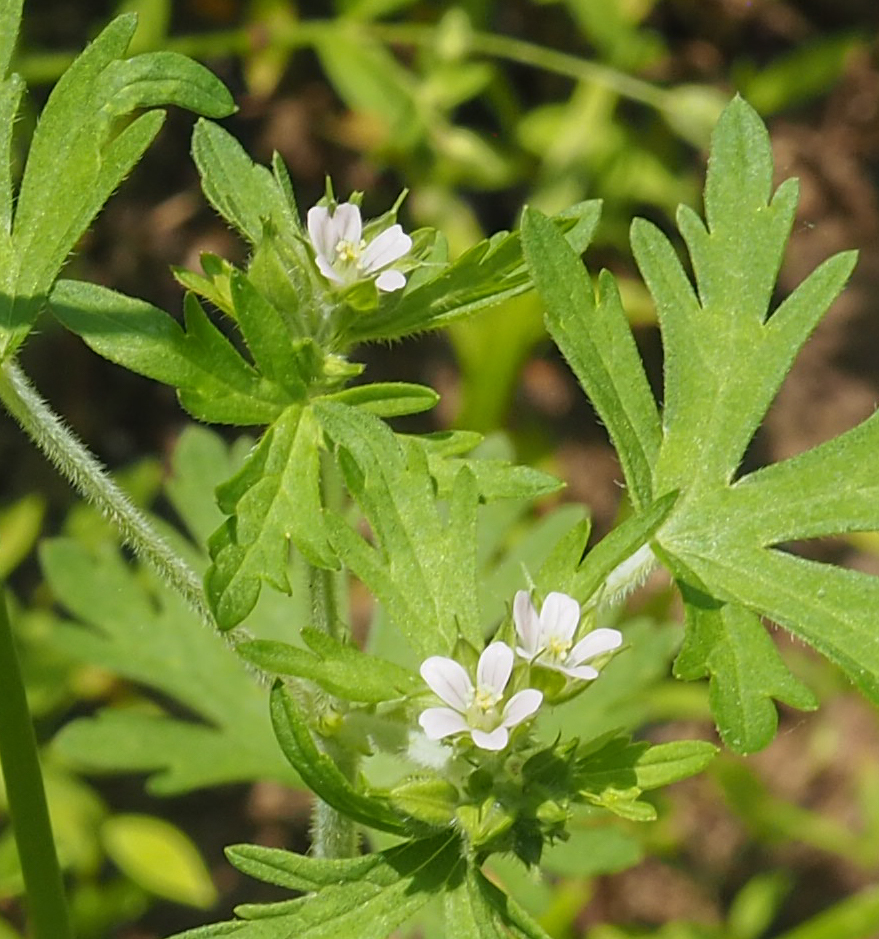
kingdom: Plantae
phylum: Tracheophyta
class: Magnoliopsida
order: Geraniales
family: Geraniaceae
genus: Geranium
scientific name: Geranium carolinianum
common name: Carolina crane's-bill
